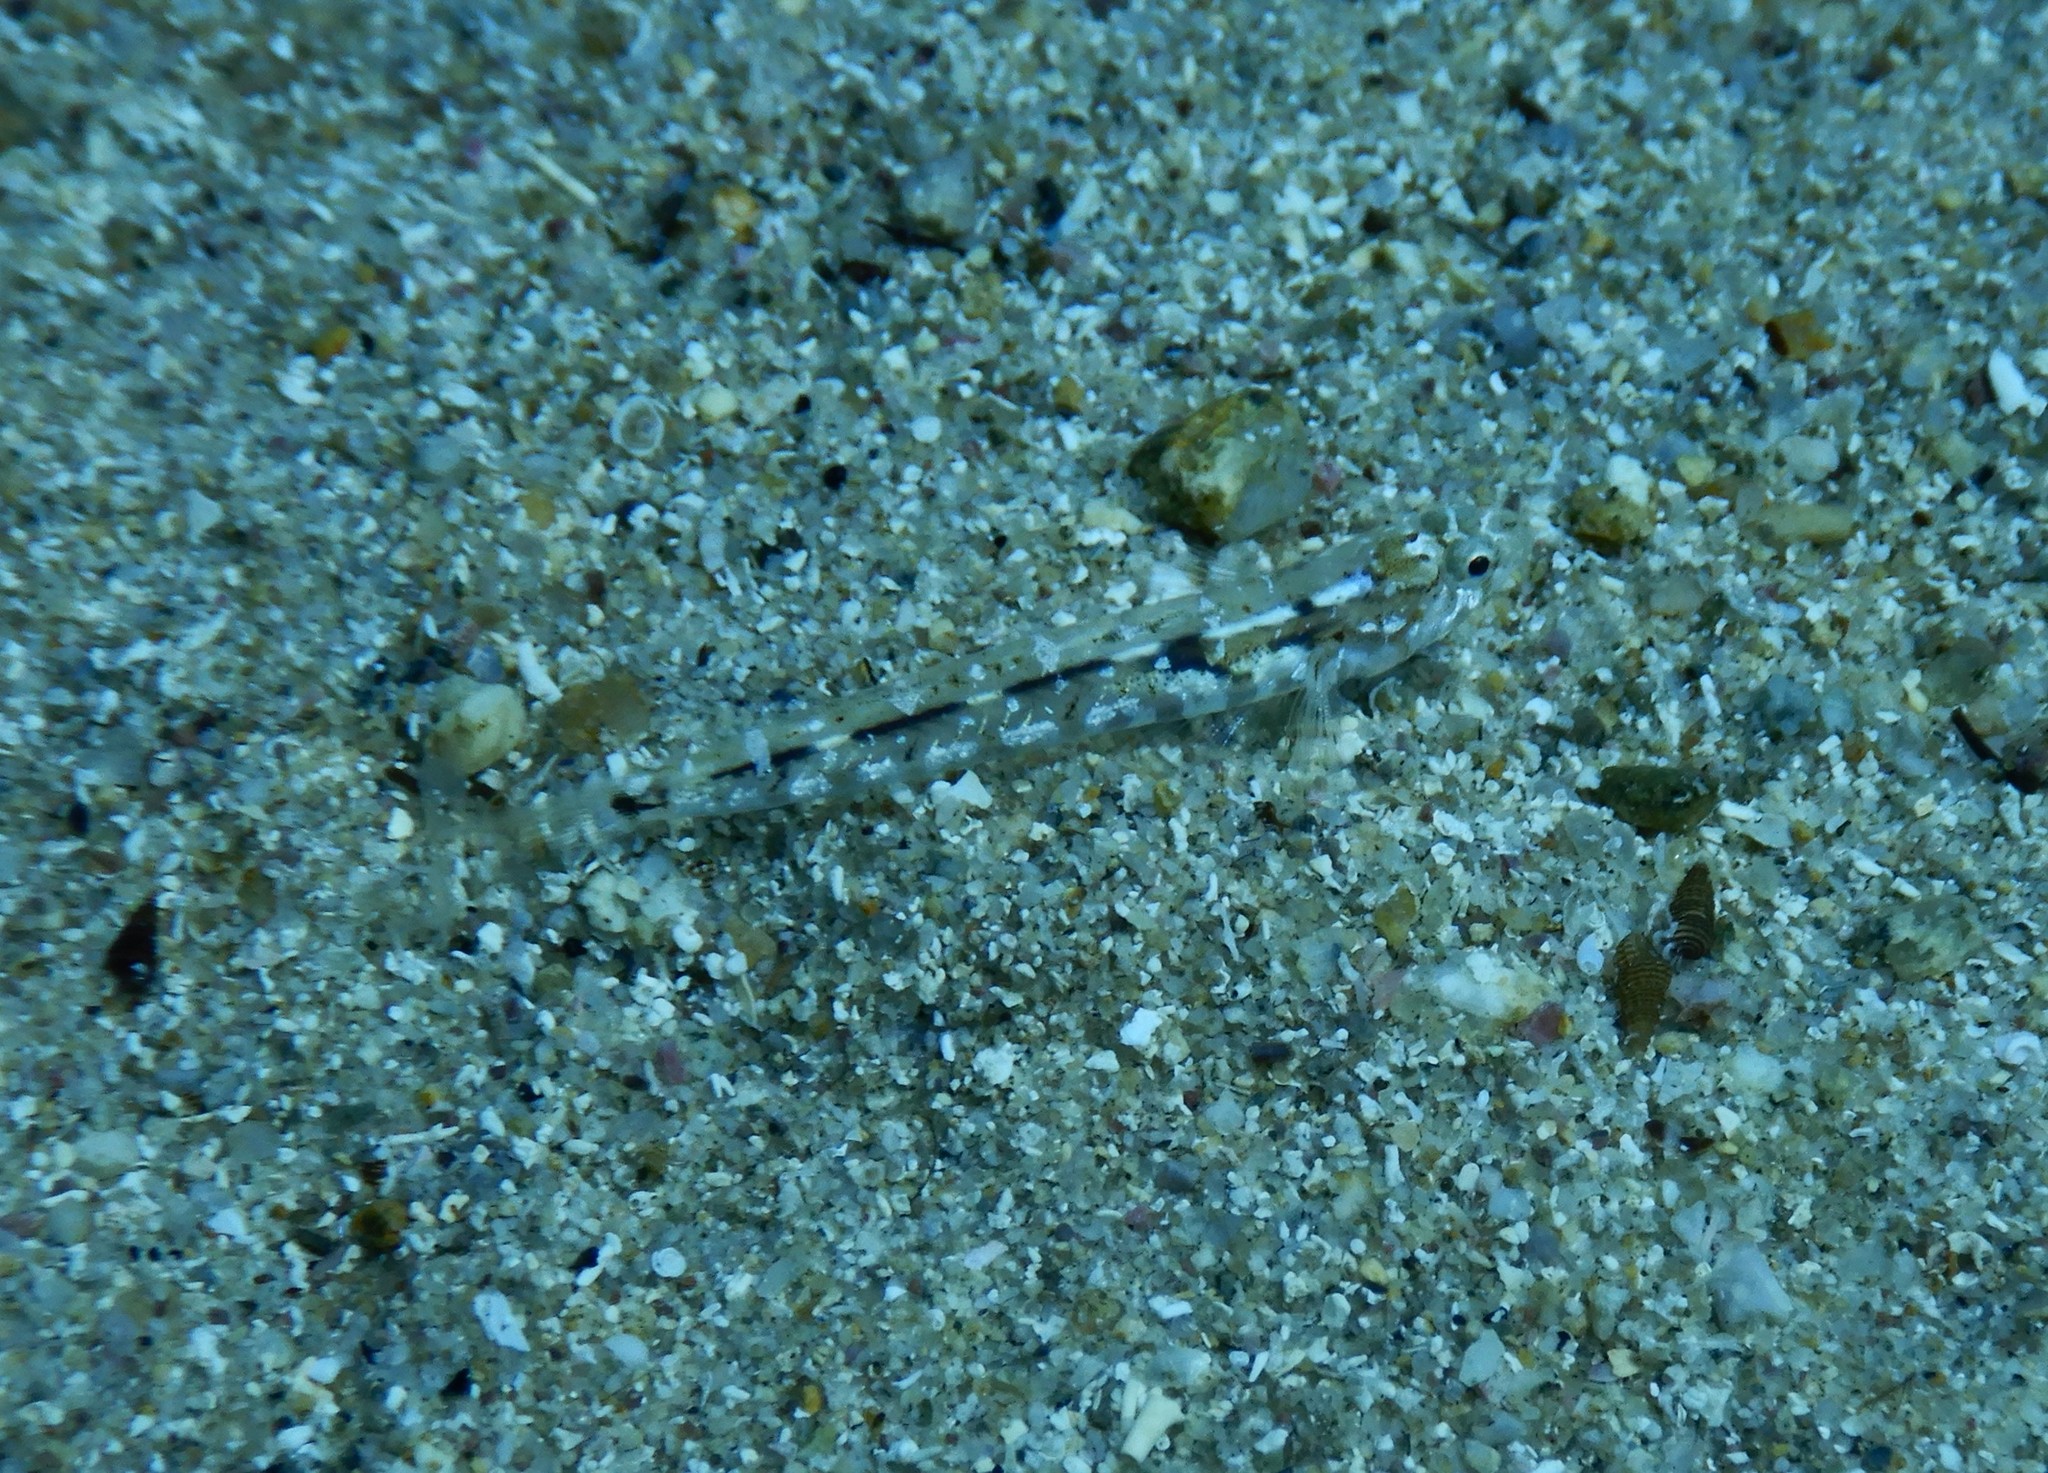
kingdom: Animalia
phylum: Chordata
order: Perciformes
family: Gobiidae
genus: Pomatoschistus
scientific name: Pomatoschistus bathi
